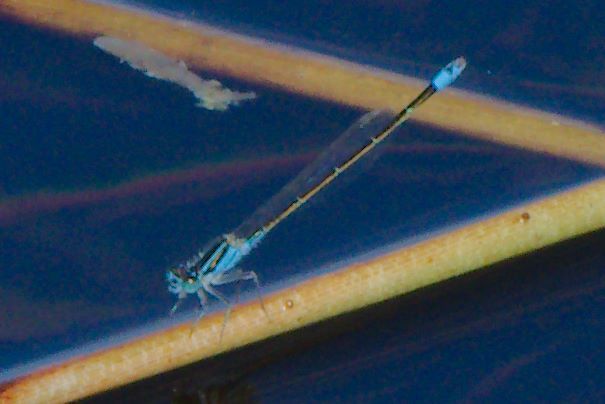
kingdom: Animalia
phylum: Arthropoda
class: Insecta
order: Odonata
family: Coenagrionidae
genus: Ischnura
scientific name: Ischnura ramburii
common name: Rambur's forktail
